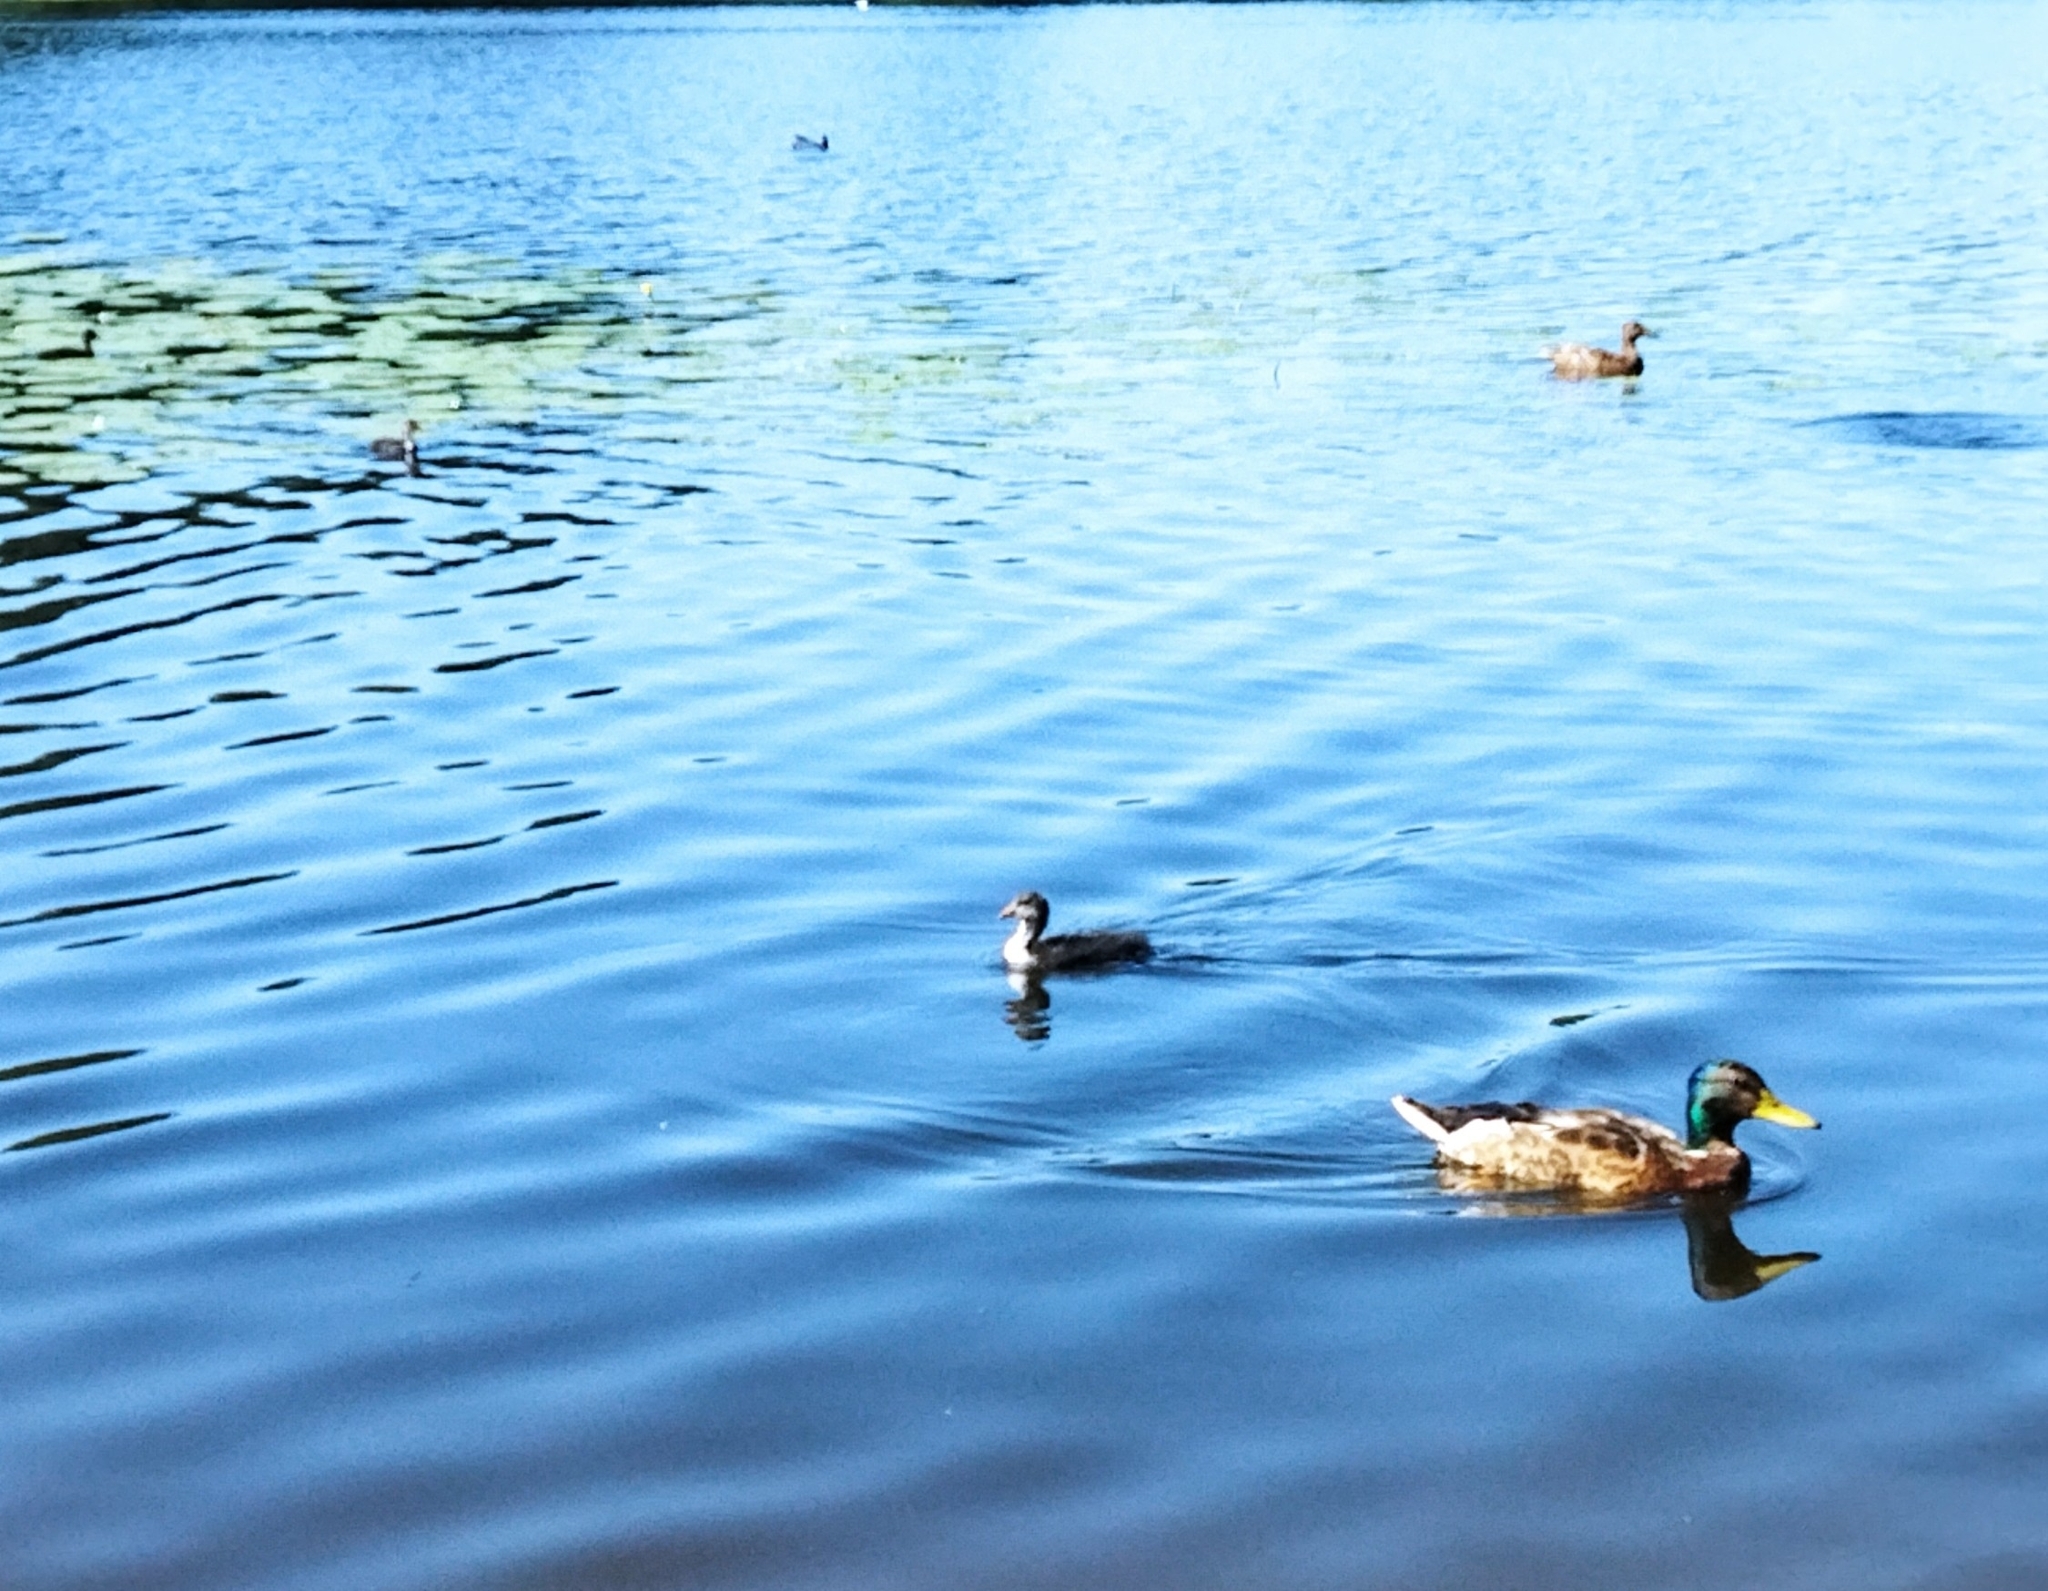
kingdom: Animalia
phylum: Chordata
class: Aves
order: Gruiformes
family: Rallidae
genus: Fulica
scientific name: Fulica atra
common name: Eurasian coot
